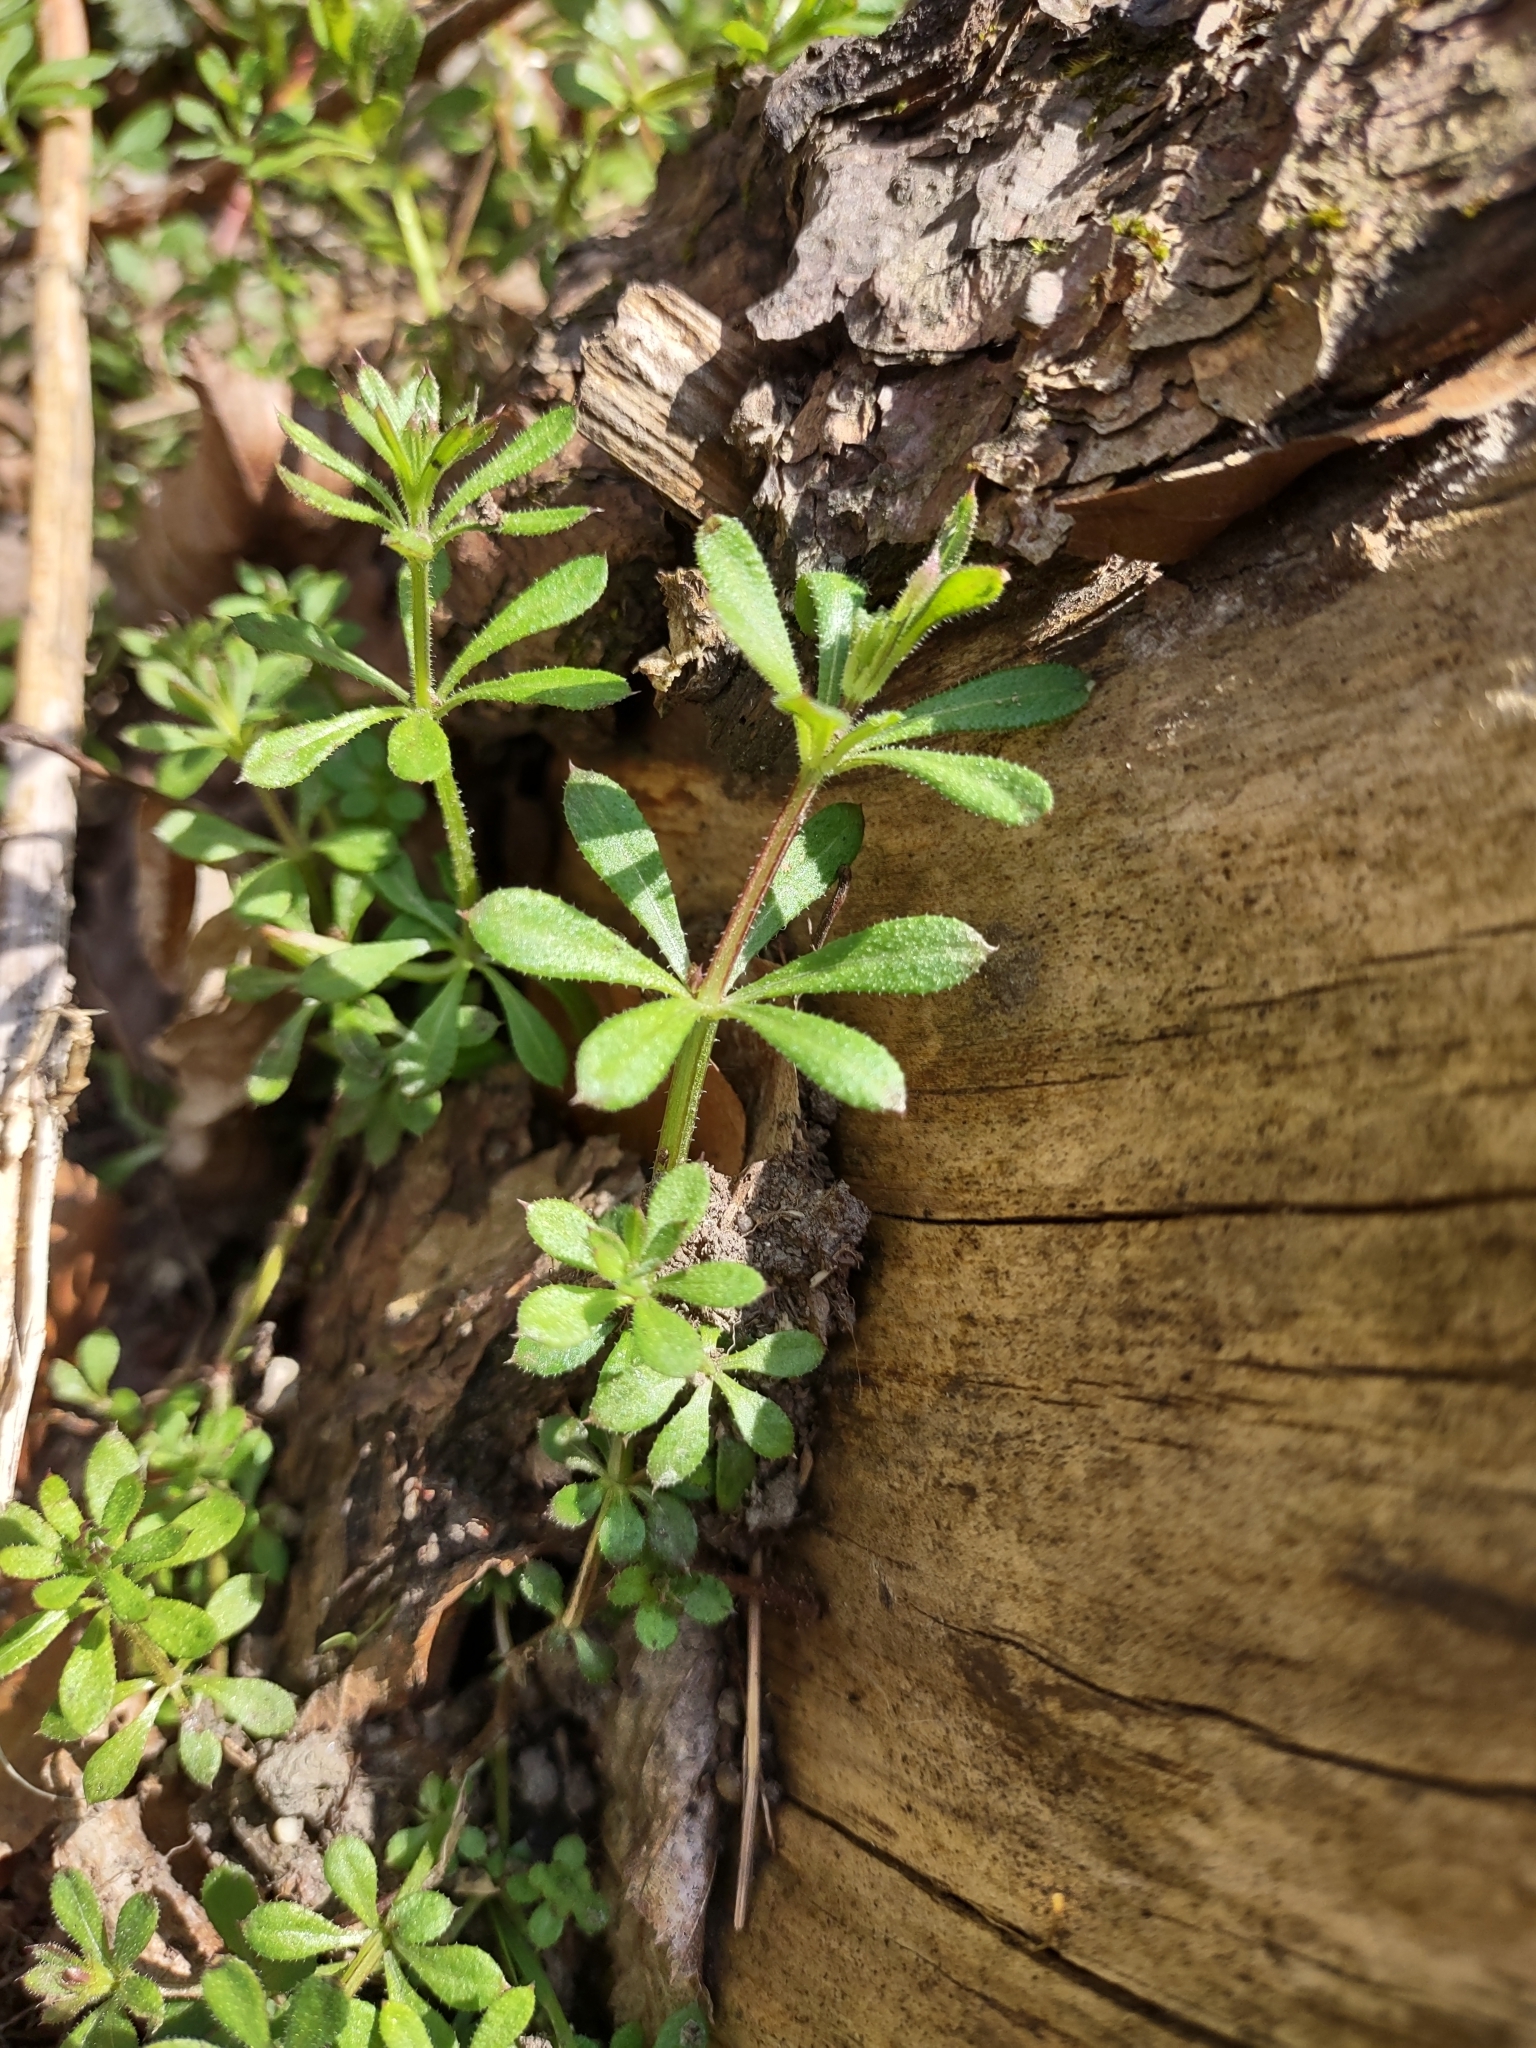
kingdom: Plantae
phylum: Tracheophyta
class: Magnoliopsida
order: Gentianales
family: Rubiaceae
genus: Galium
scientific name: Galium aparine
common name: Cleavers
